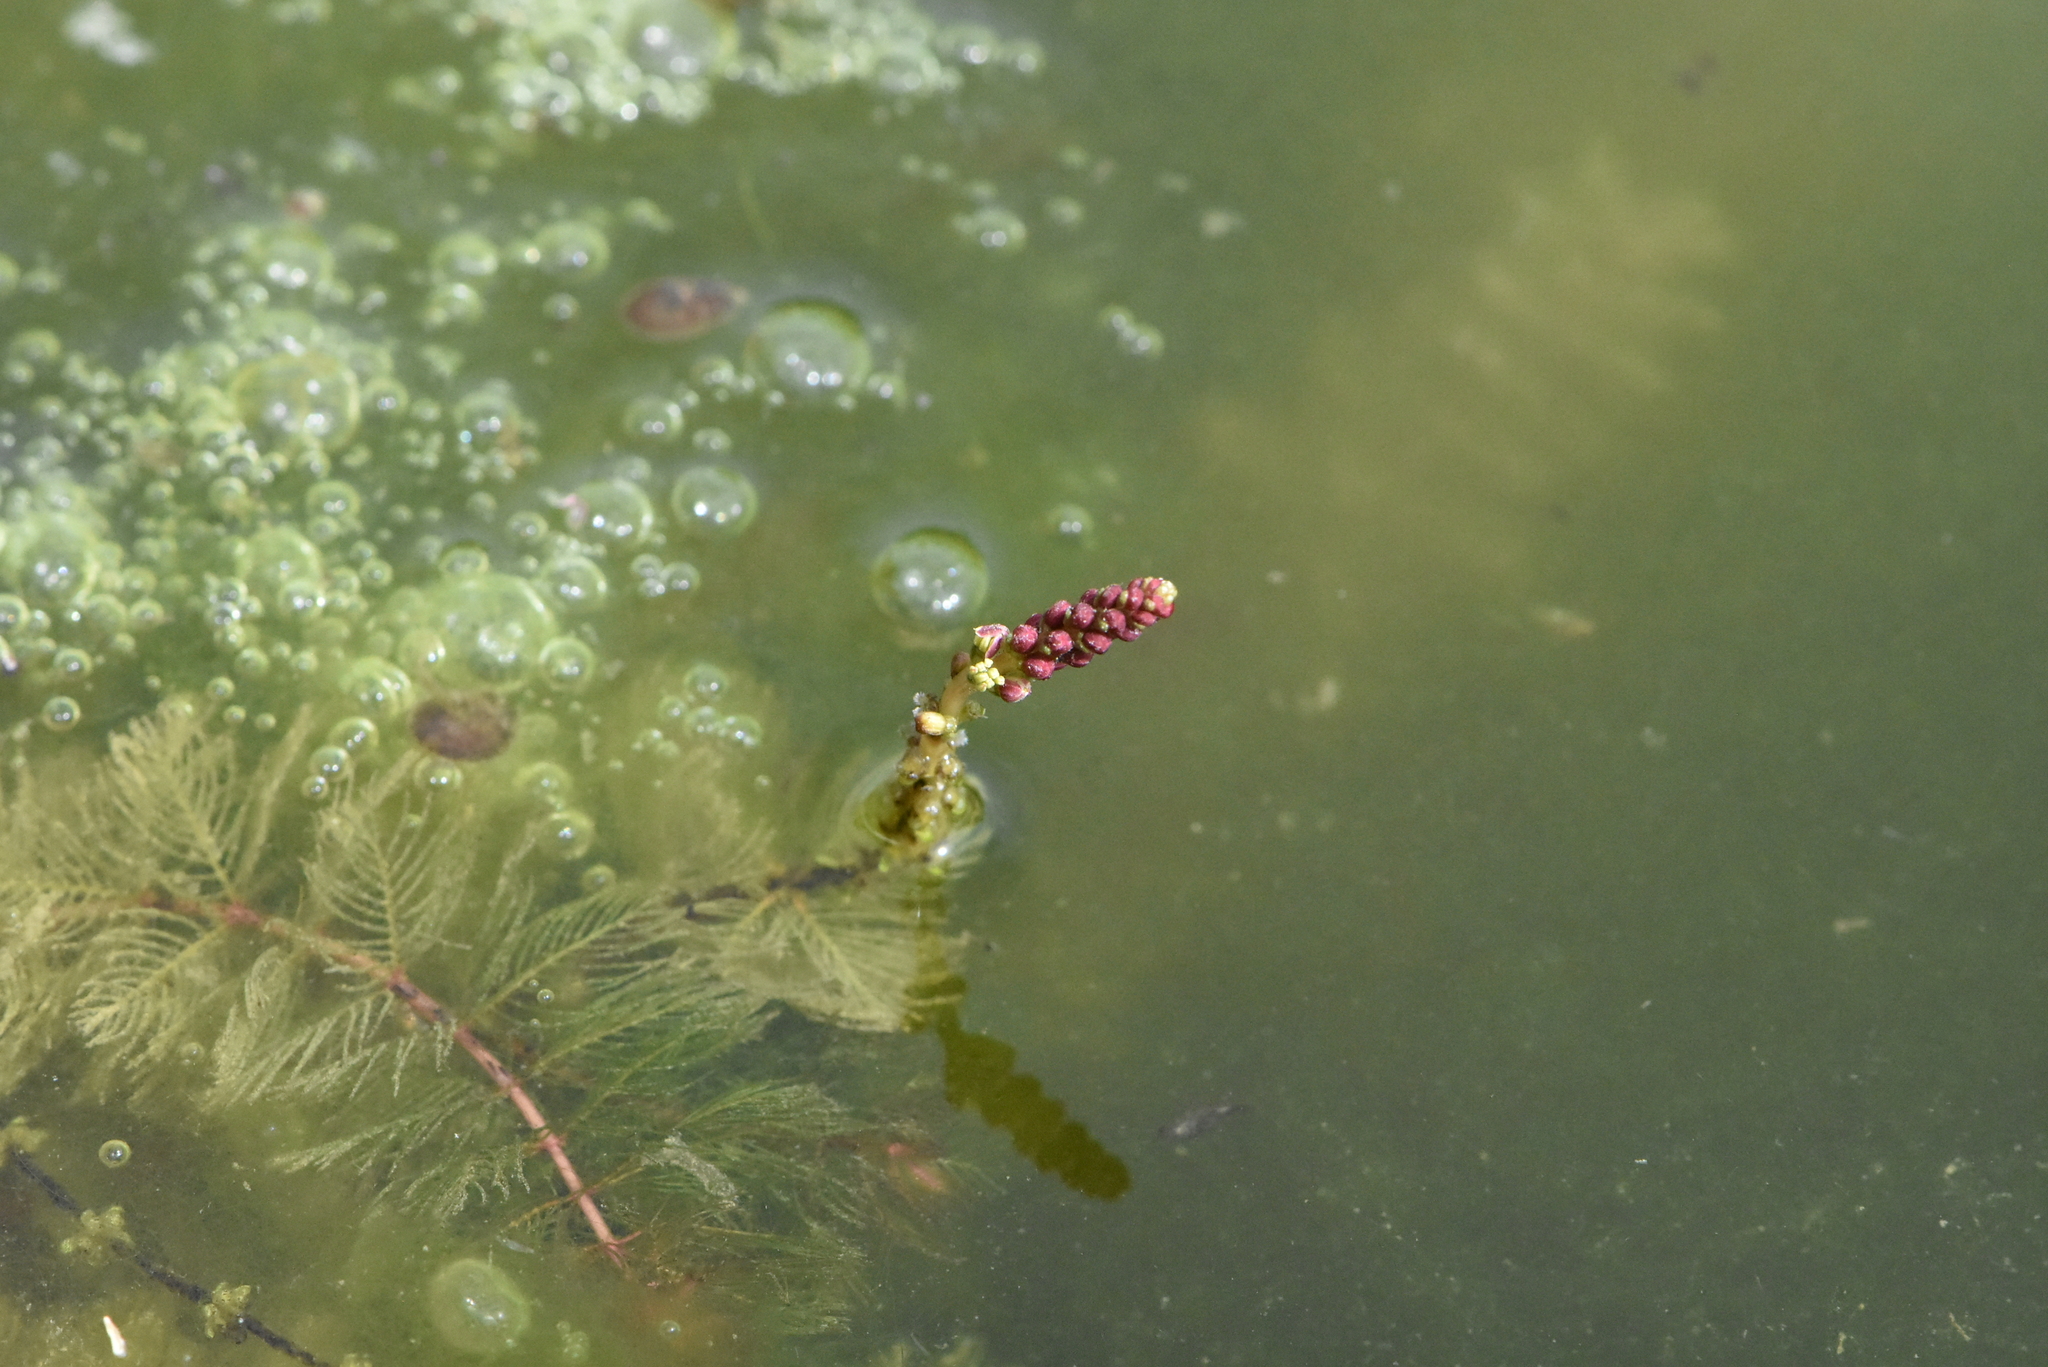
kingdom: Plantae
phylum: Tracheophyta
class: Magnoliopsida
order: Saxifragales
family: Haloragaceae
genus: Myriophyllum
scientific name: Myriophyllum spicatum
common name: Spiked water-milfoil
